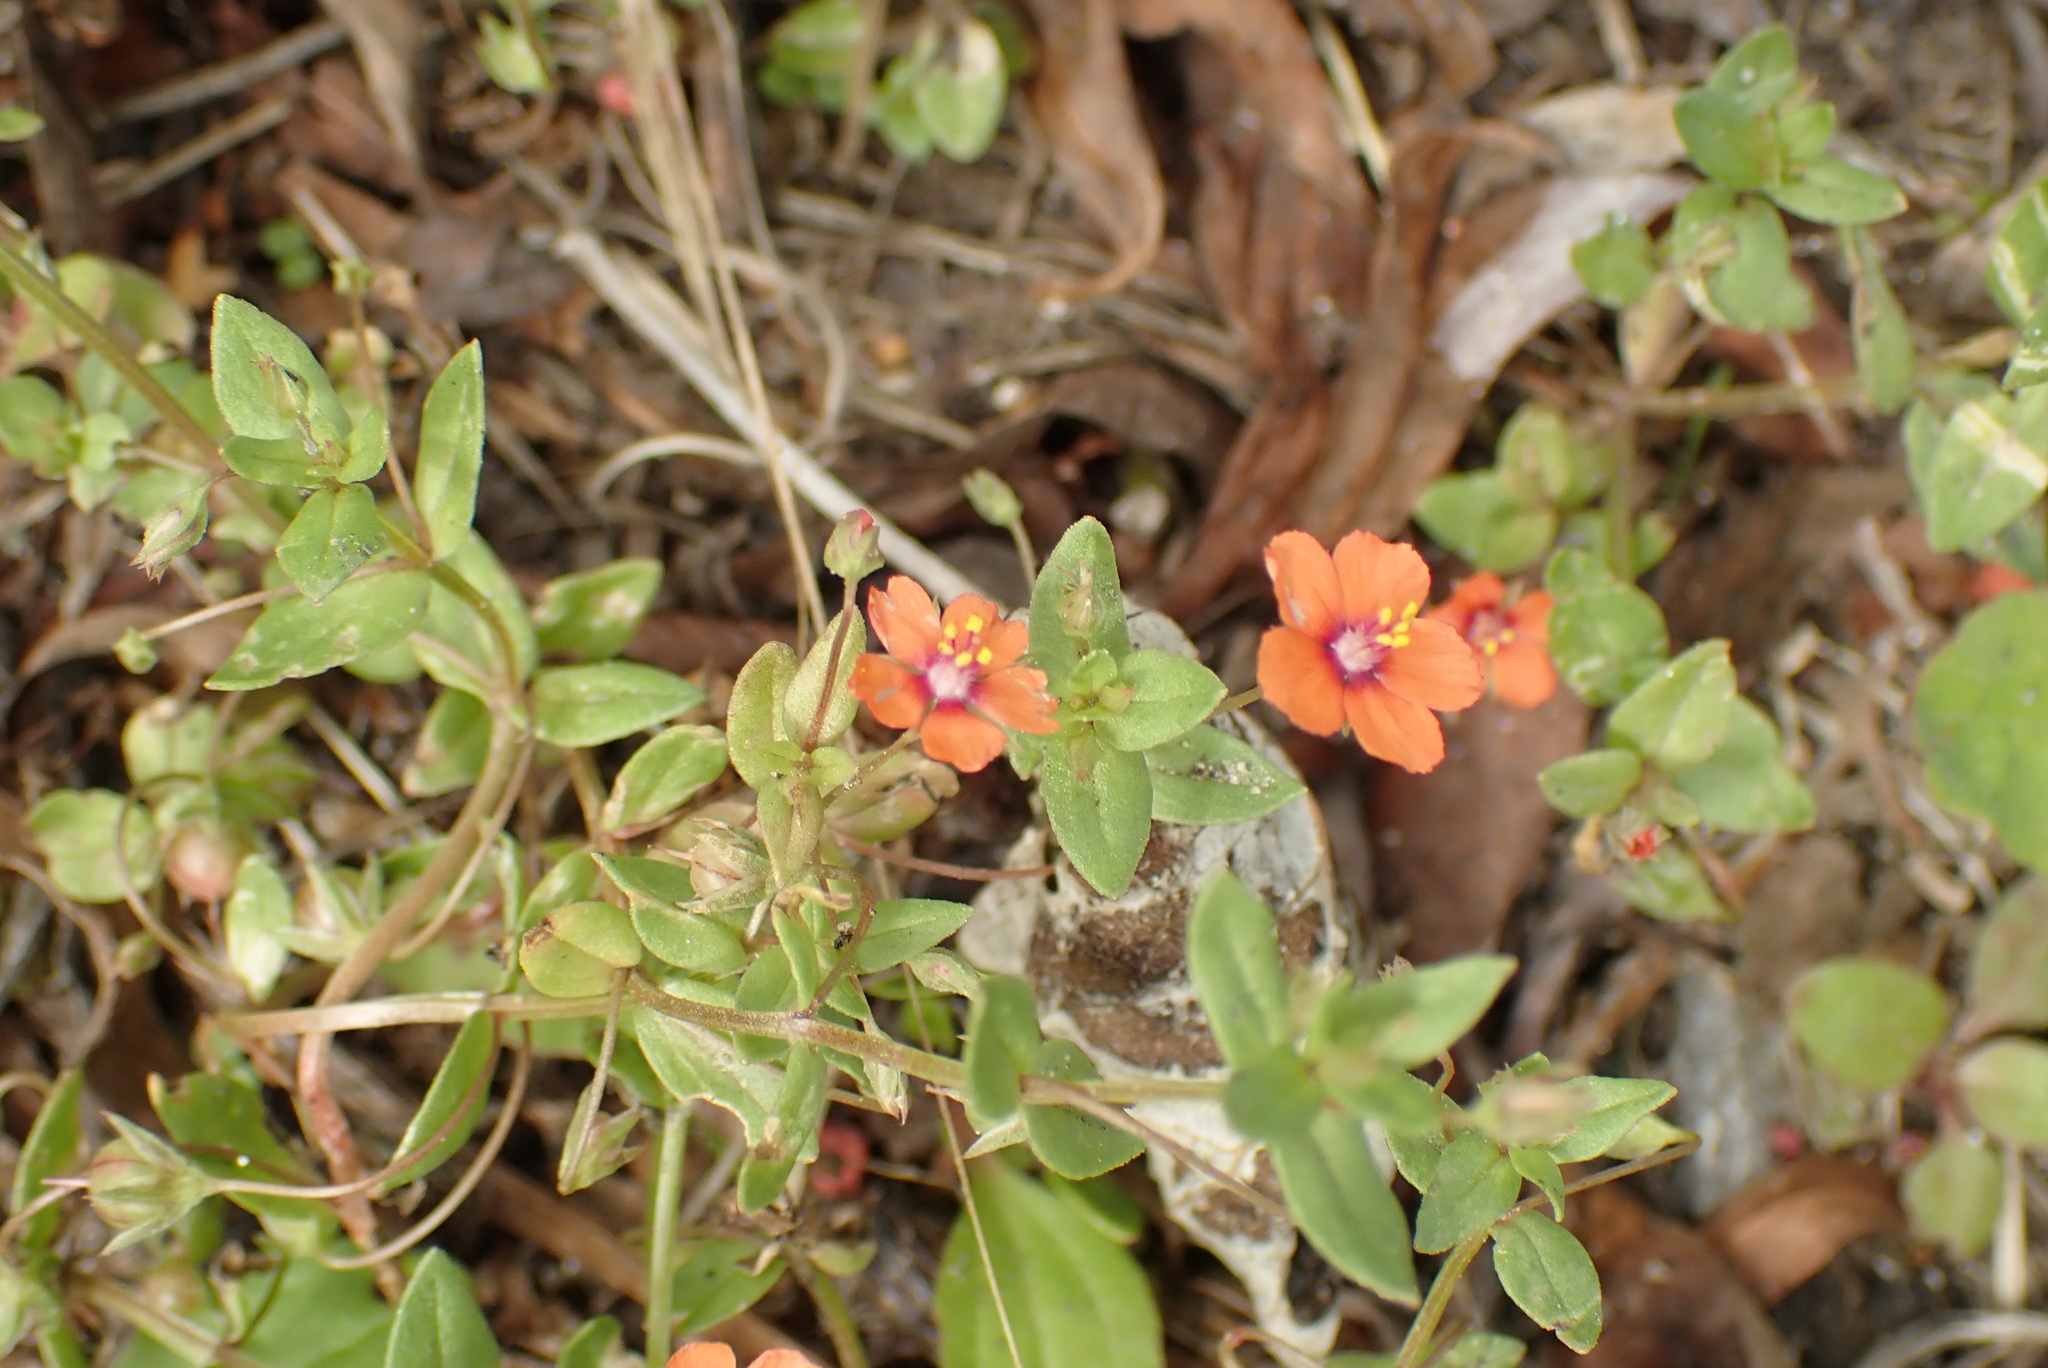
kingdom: Plantae
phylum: Tracheophyta
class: Magnoliopsida
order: Ericales
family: Primulaceae
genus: Lysimachia
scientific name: Lysimachia arvensis
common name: Scarlet pimpernel
